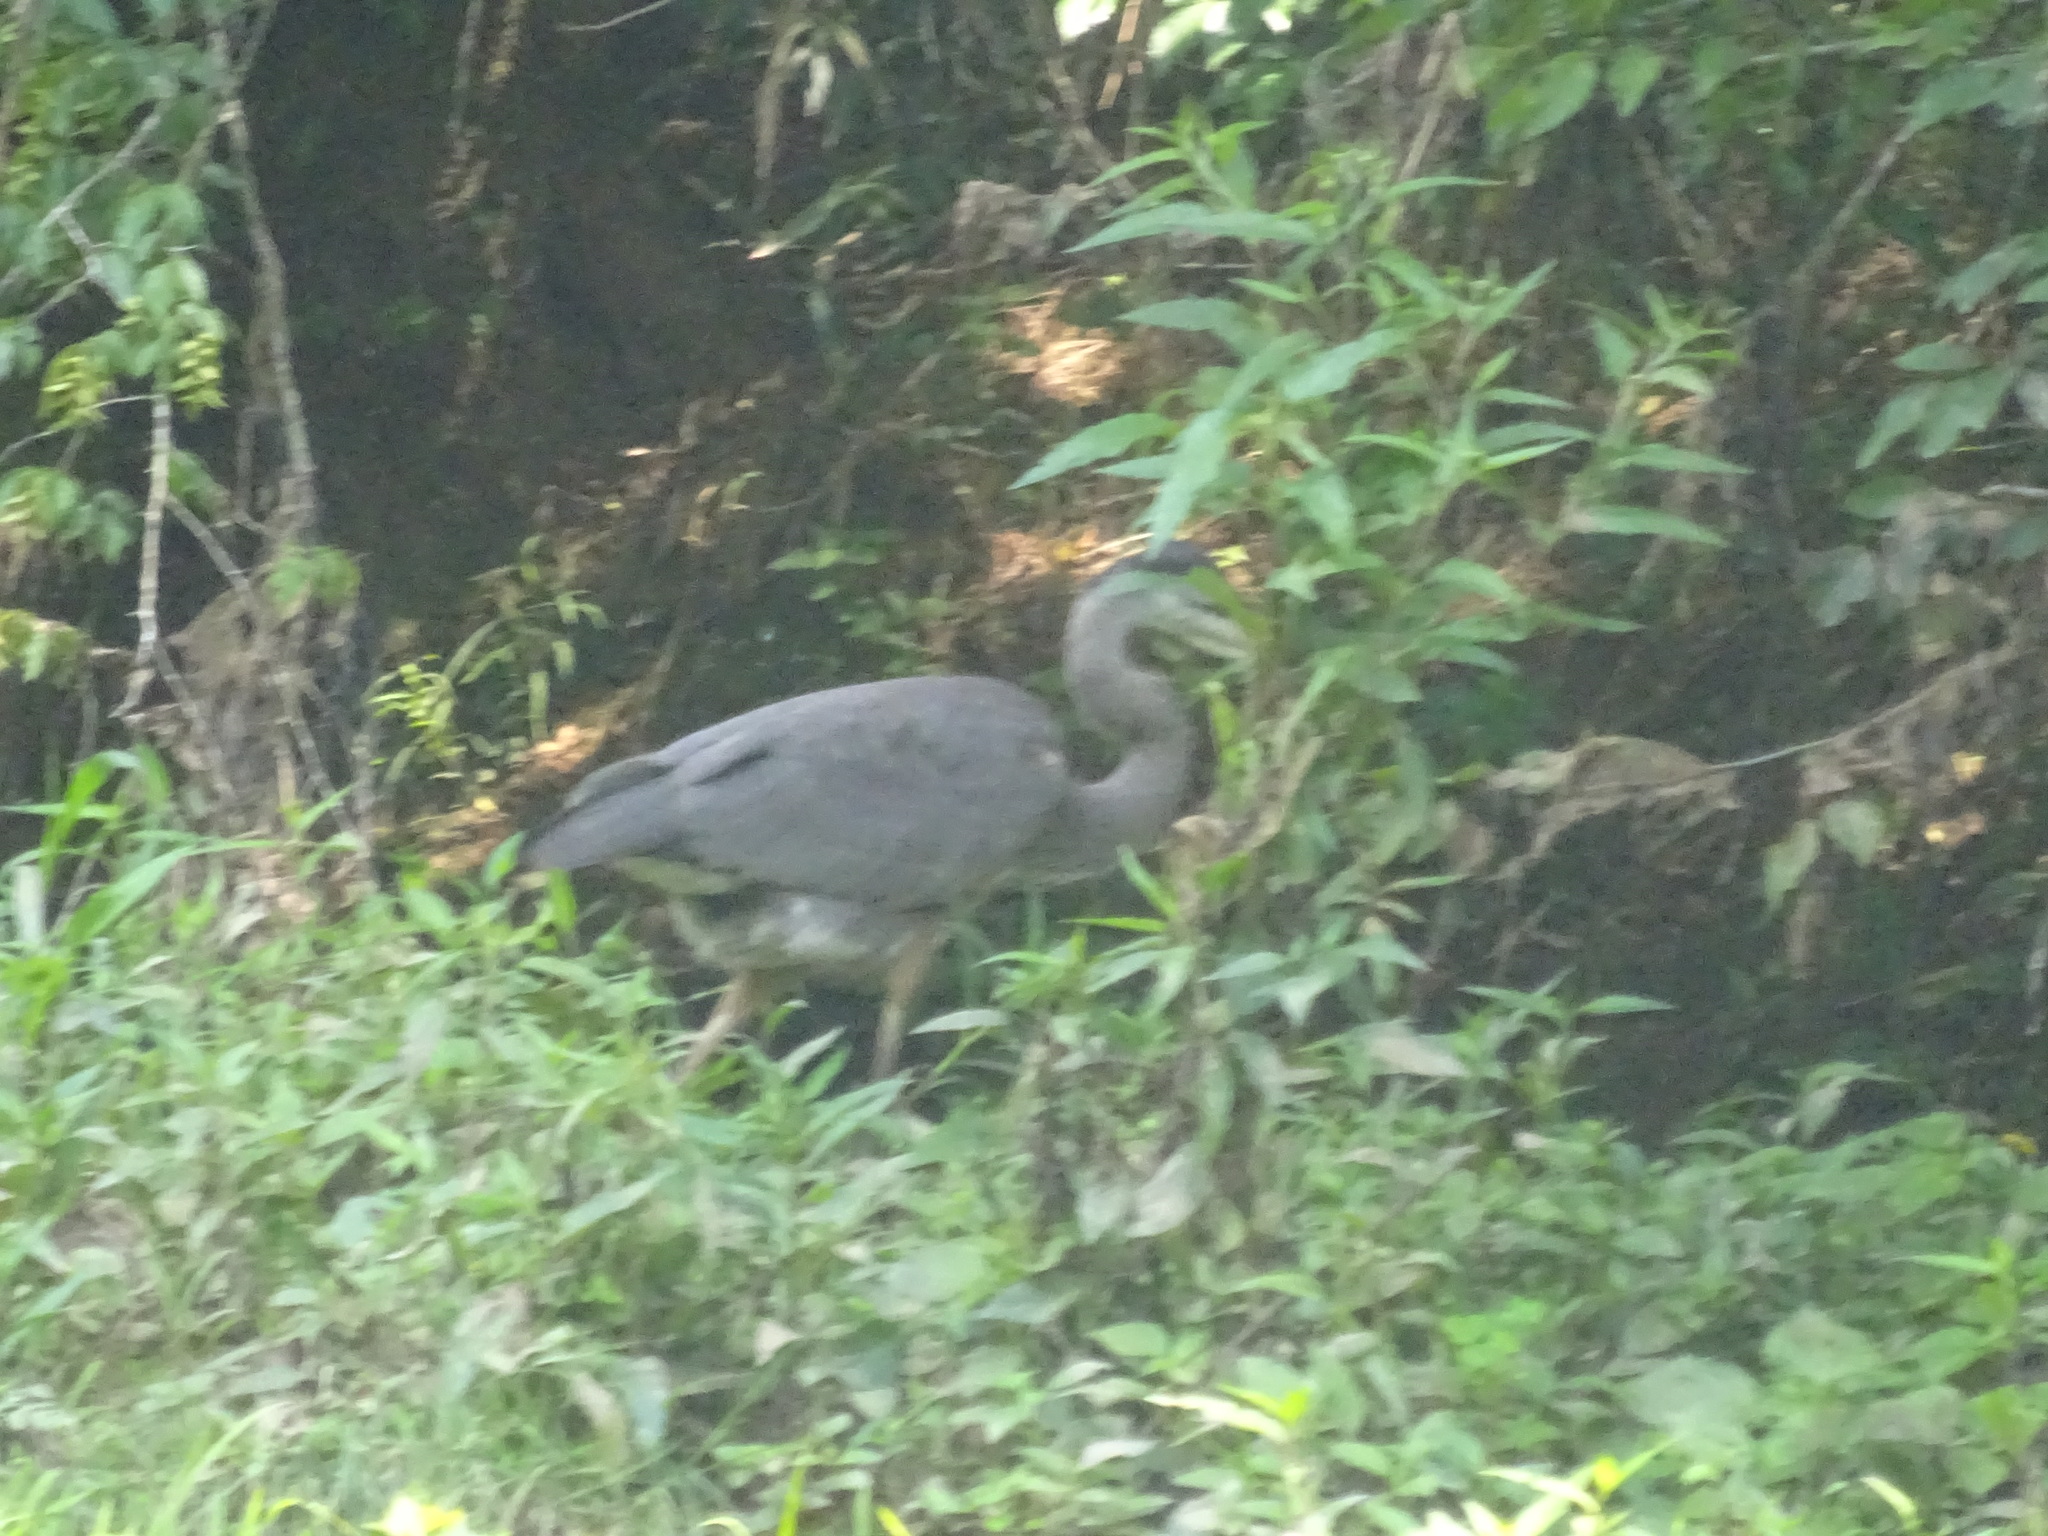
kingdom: Animalia
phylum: Chordata
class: Aves
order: Pelecaniformes
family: Ardeidae
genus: Ardea
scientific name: Ardea herodias
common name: Great blue heron
